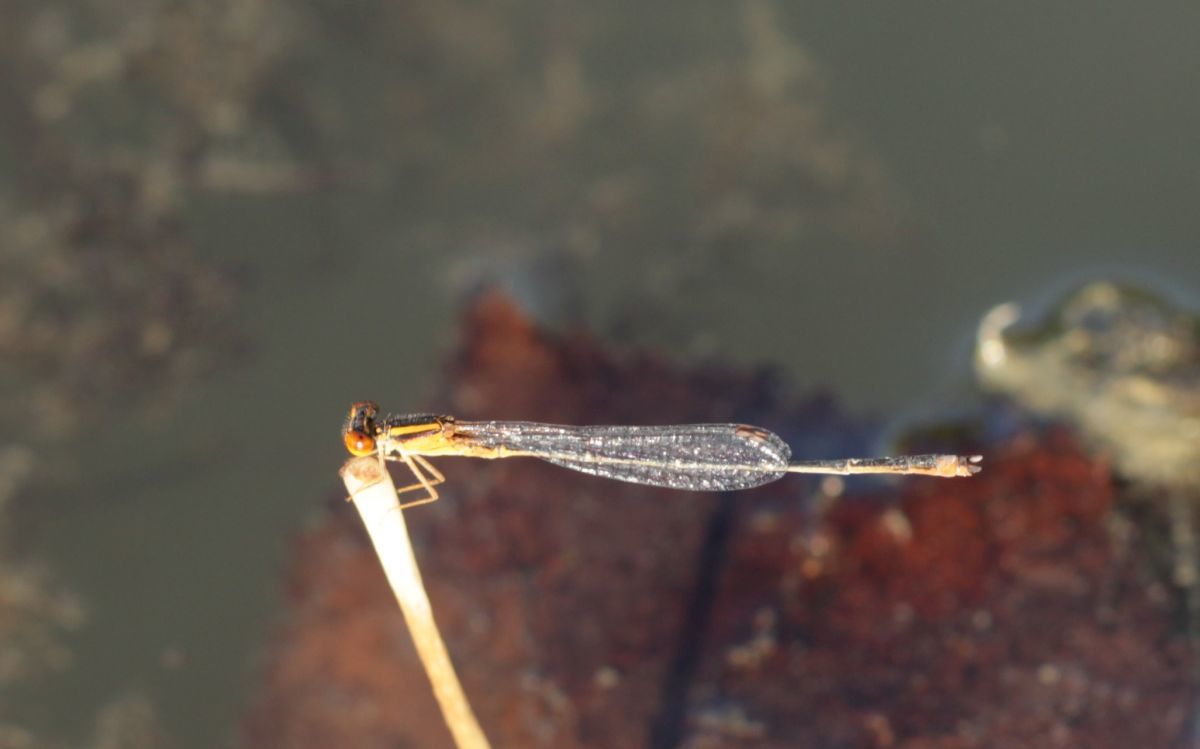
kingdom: Animalia
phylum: Arthropoda
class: Insecta
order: Odonata
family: Coenagrionidae
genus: Enallagma
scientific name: Enallagma signatum
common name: Orange bluet
